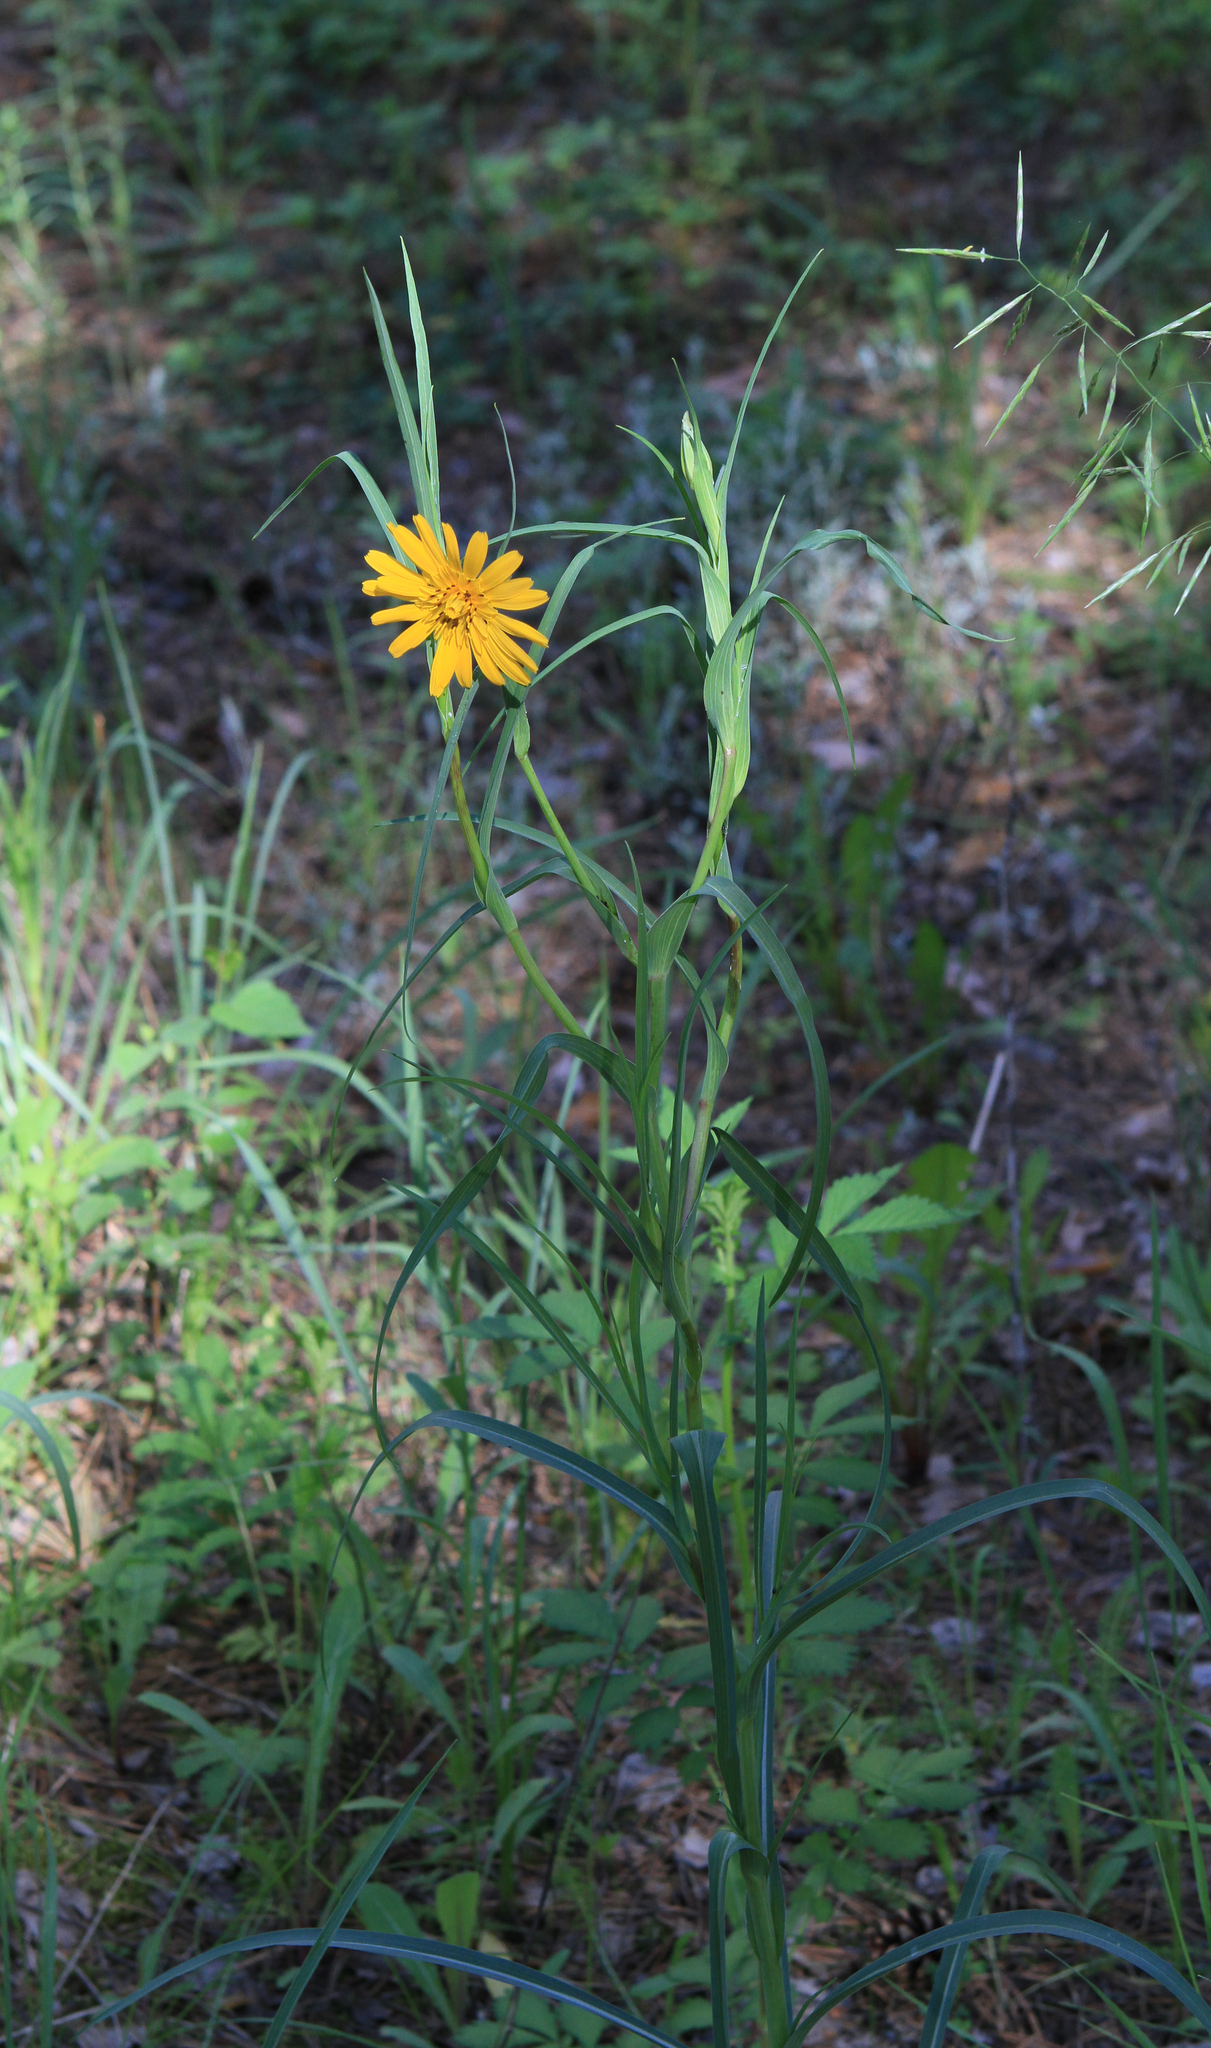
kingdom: Plantae
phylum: Tracheophyta
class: Magnoliopsida
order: Asterales
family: Asteraceae
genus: Tragopogon
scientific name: Tragopogon orientalis
